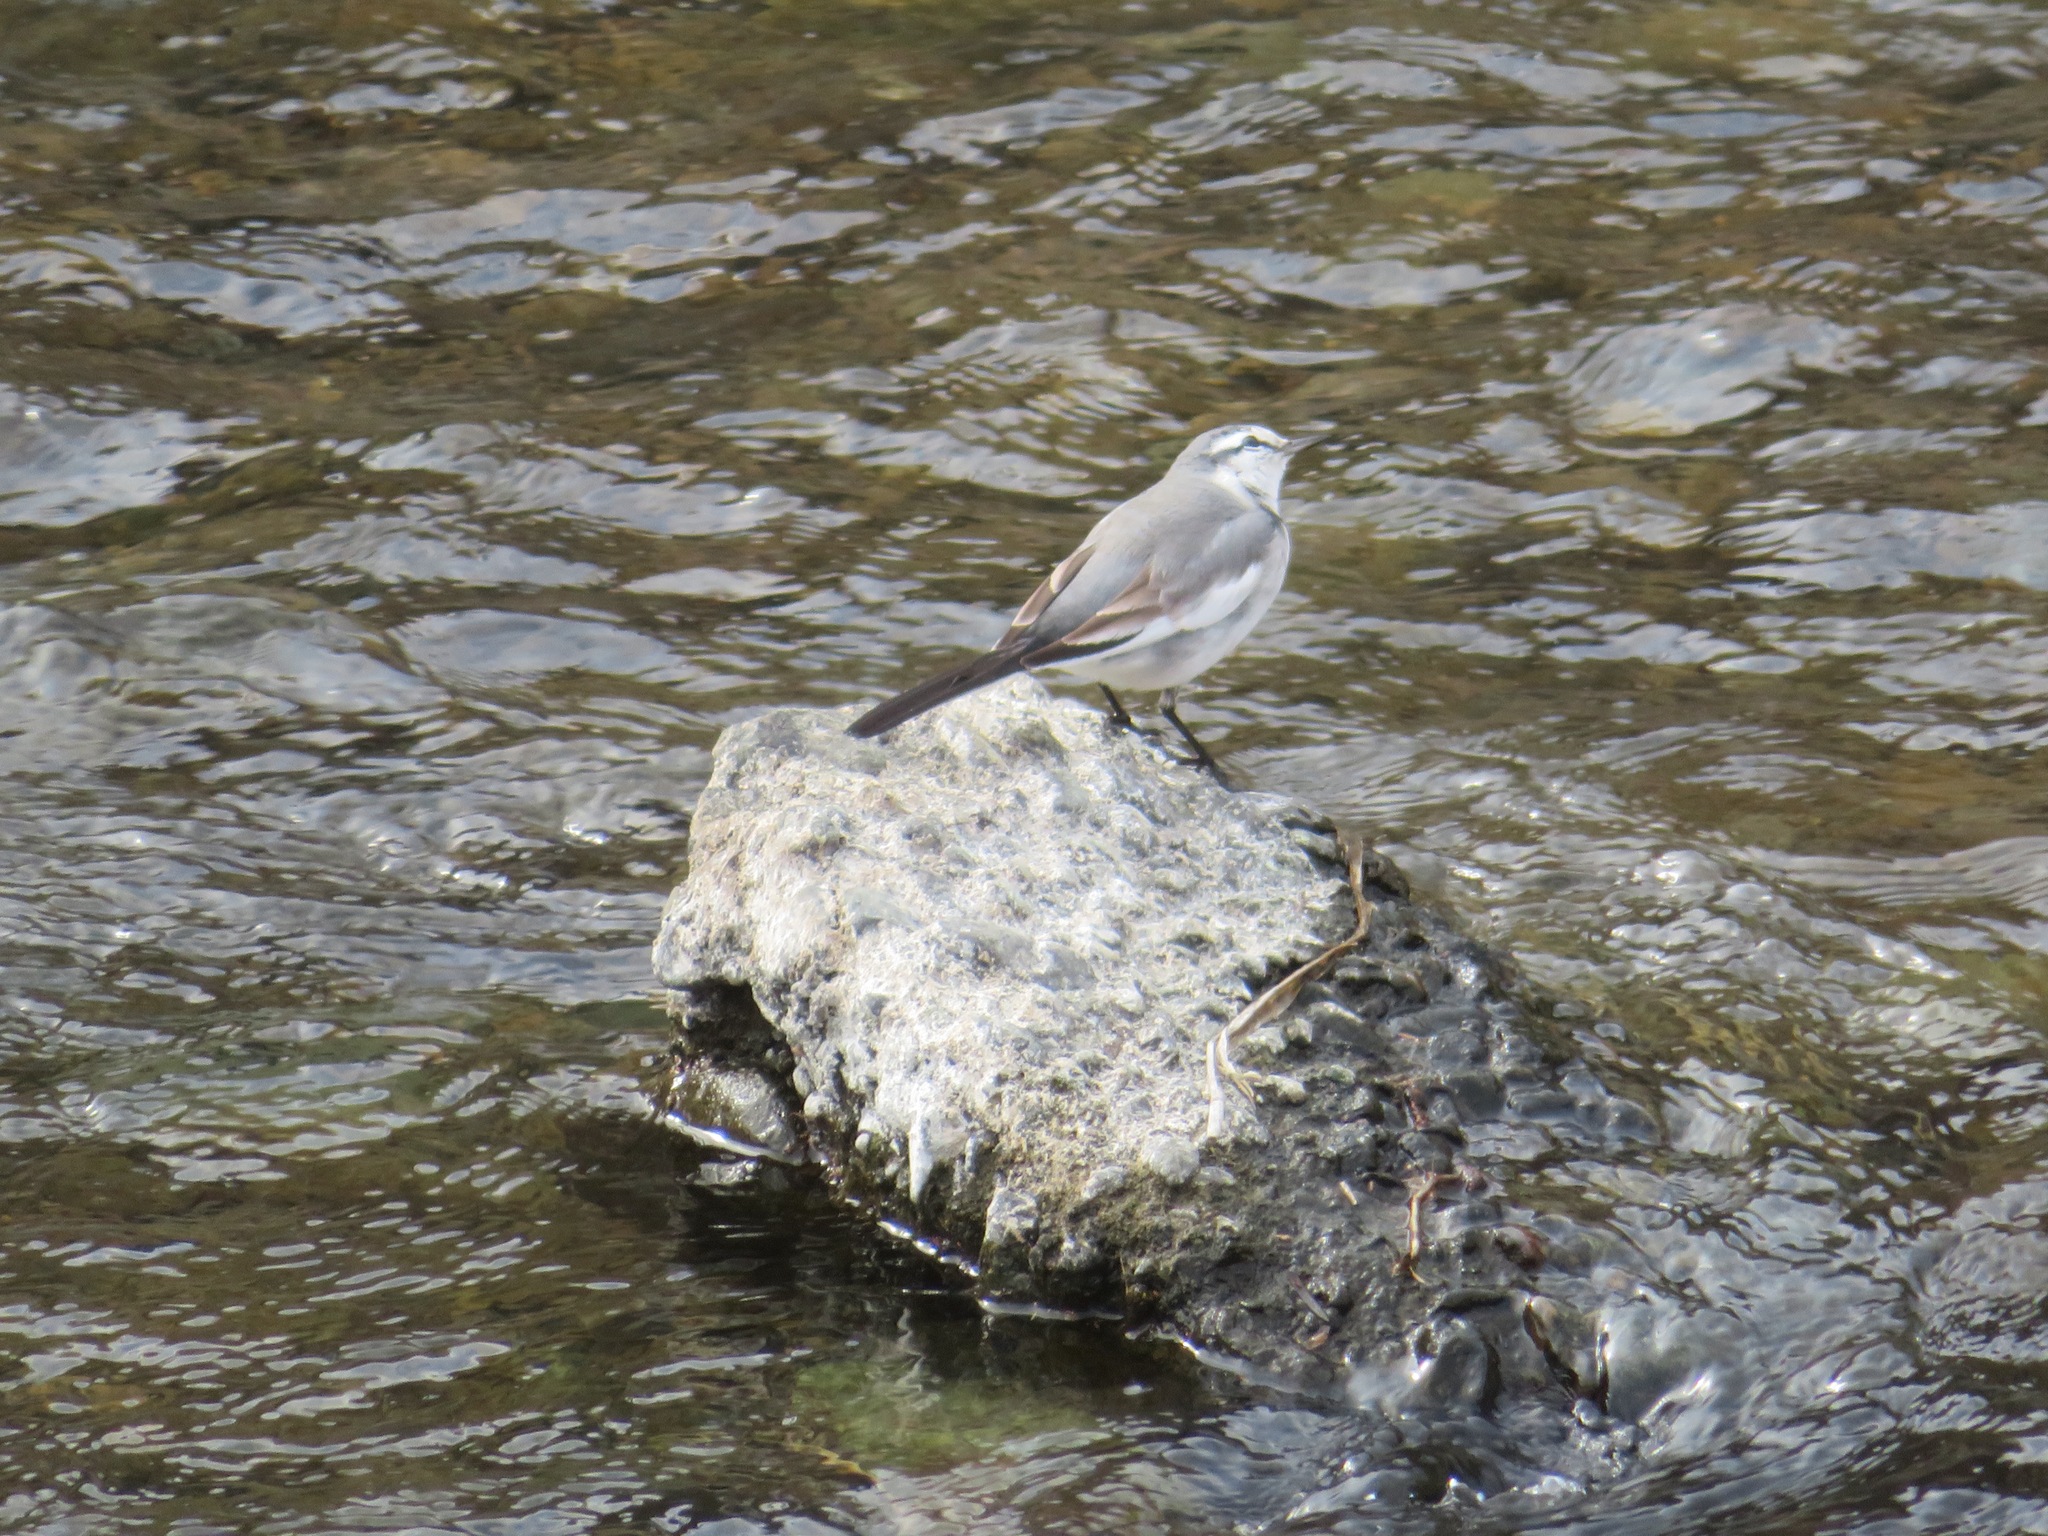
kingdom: Animalia
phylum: Chordata
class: Aves
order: Passeriformes
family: Motacillidae
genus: Motacilla
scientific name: Motacilla alba
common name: White wagtail
